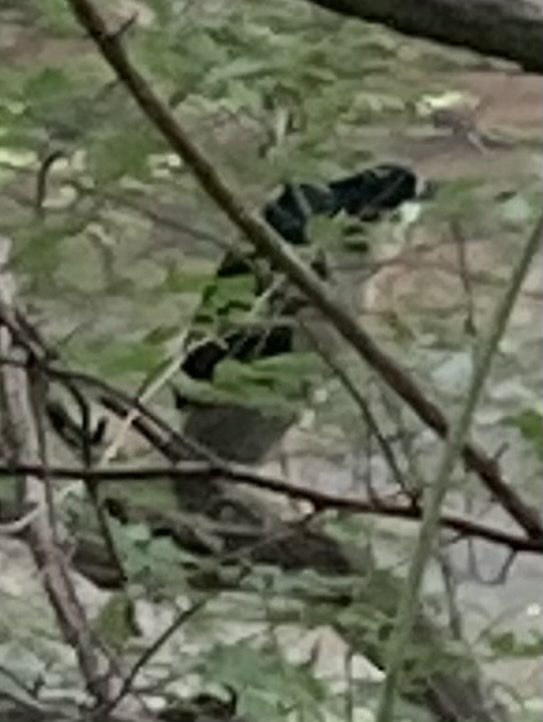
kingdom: Animalia
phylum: Chordata
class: Aves
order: Pelecaniformes
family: Ardeidae
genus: Nycticorax
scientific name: Nycticorax nycticorax
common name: Black-crowned night heron
